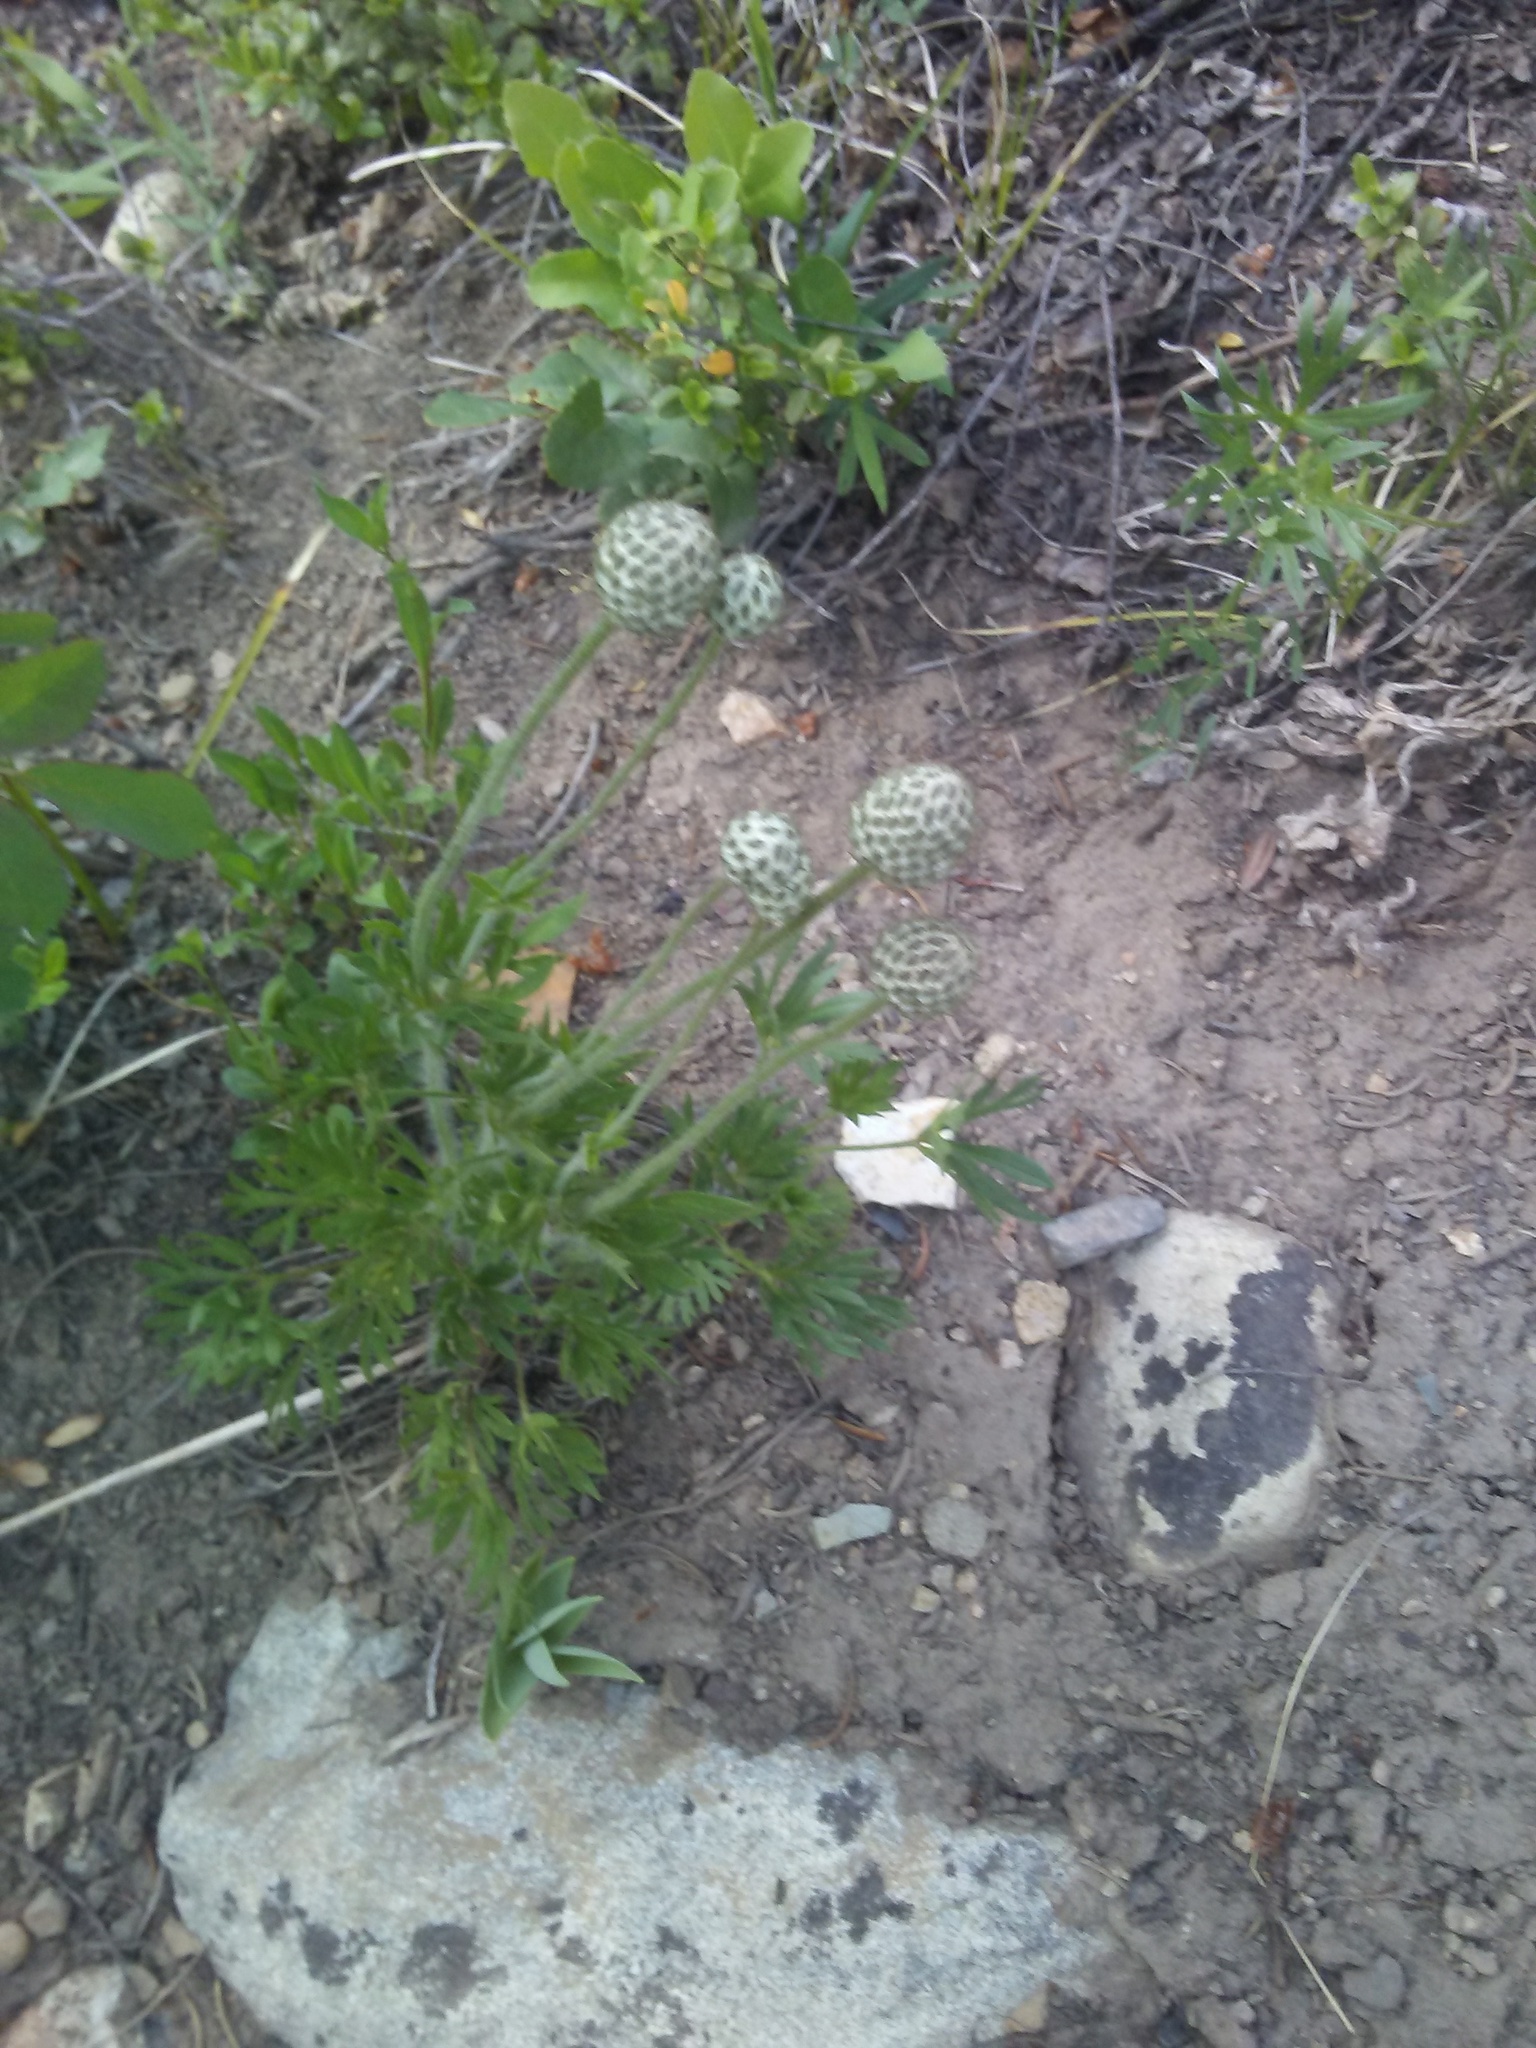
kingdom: Plantae
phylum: Tracheophyta
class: Magnoliopsida
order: Ranunculales
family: Ranunculaceae
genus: Anemone
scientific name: Anemone multifida
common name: Bird's-foot anemone
